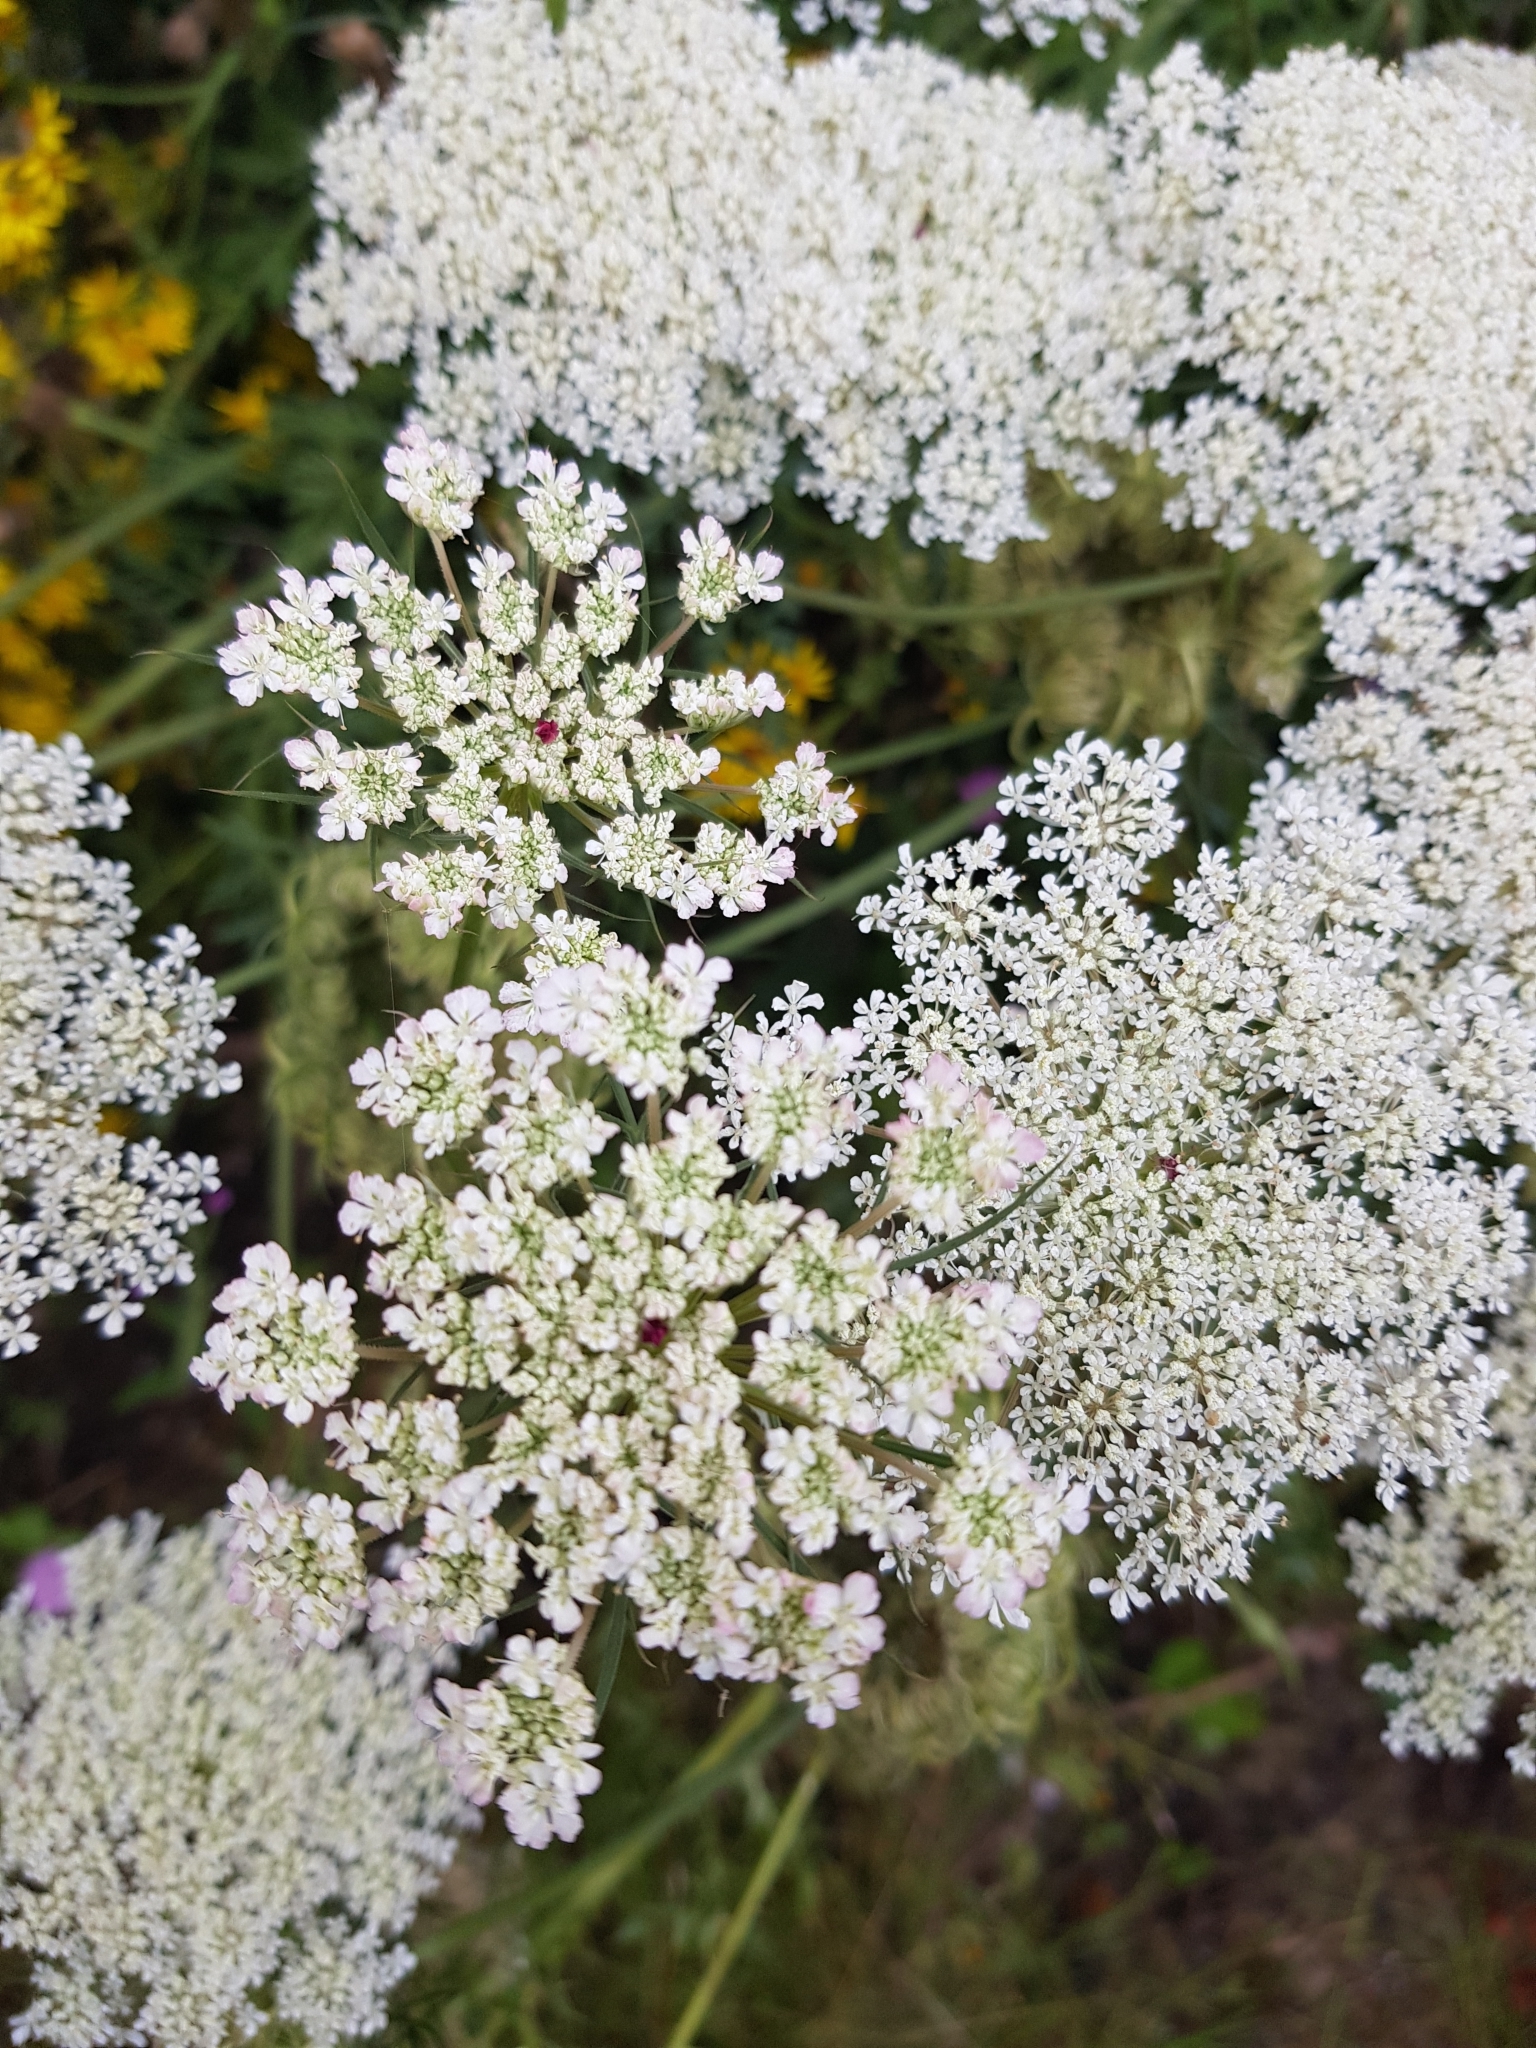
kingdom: Plantae
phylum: Tracheophyta
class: Magnoliopsida
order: Apiales
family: Apiaceae
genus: Daucus
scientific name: Daucus carota
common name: Wild carrot
